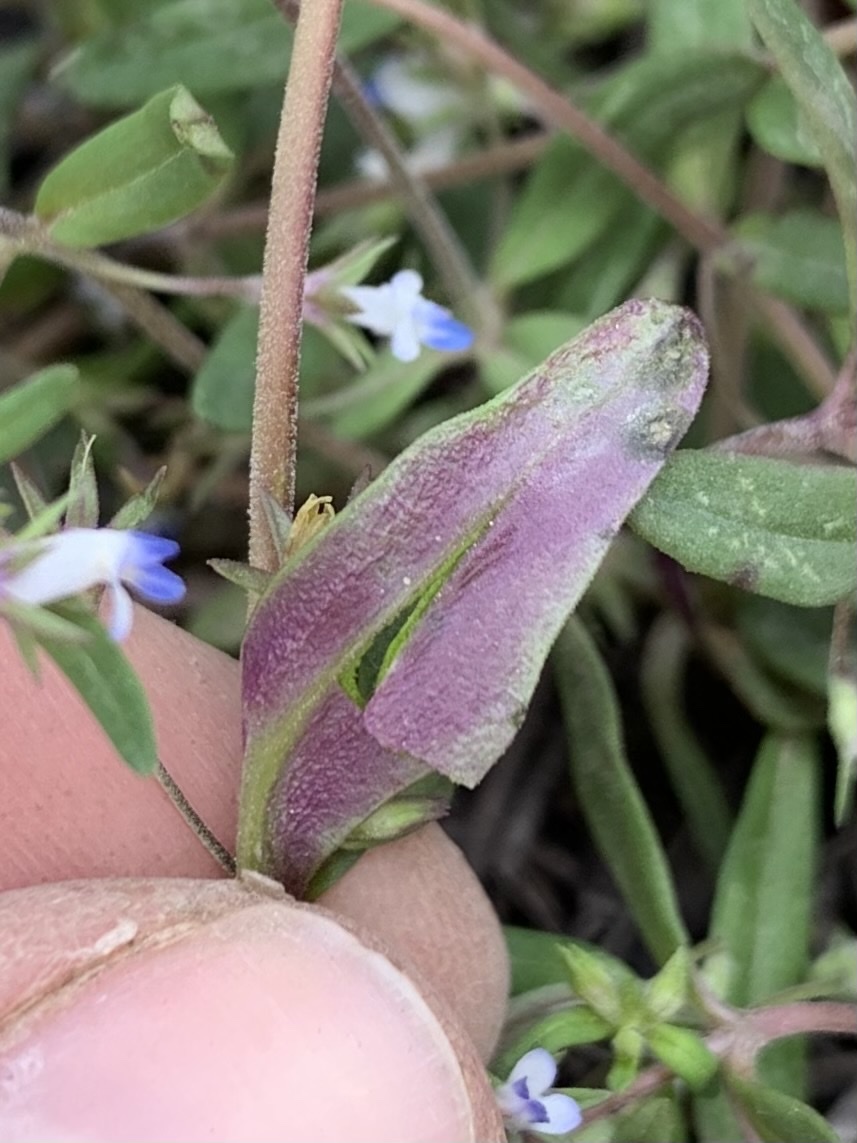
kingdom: Plantae
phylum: Tracheophyta
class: Magnoliopsida
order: Lamiales
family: Plantaginaceae
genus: Collinsia
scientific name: Collinsia parviflora
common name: Blue-lips
